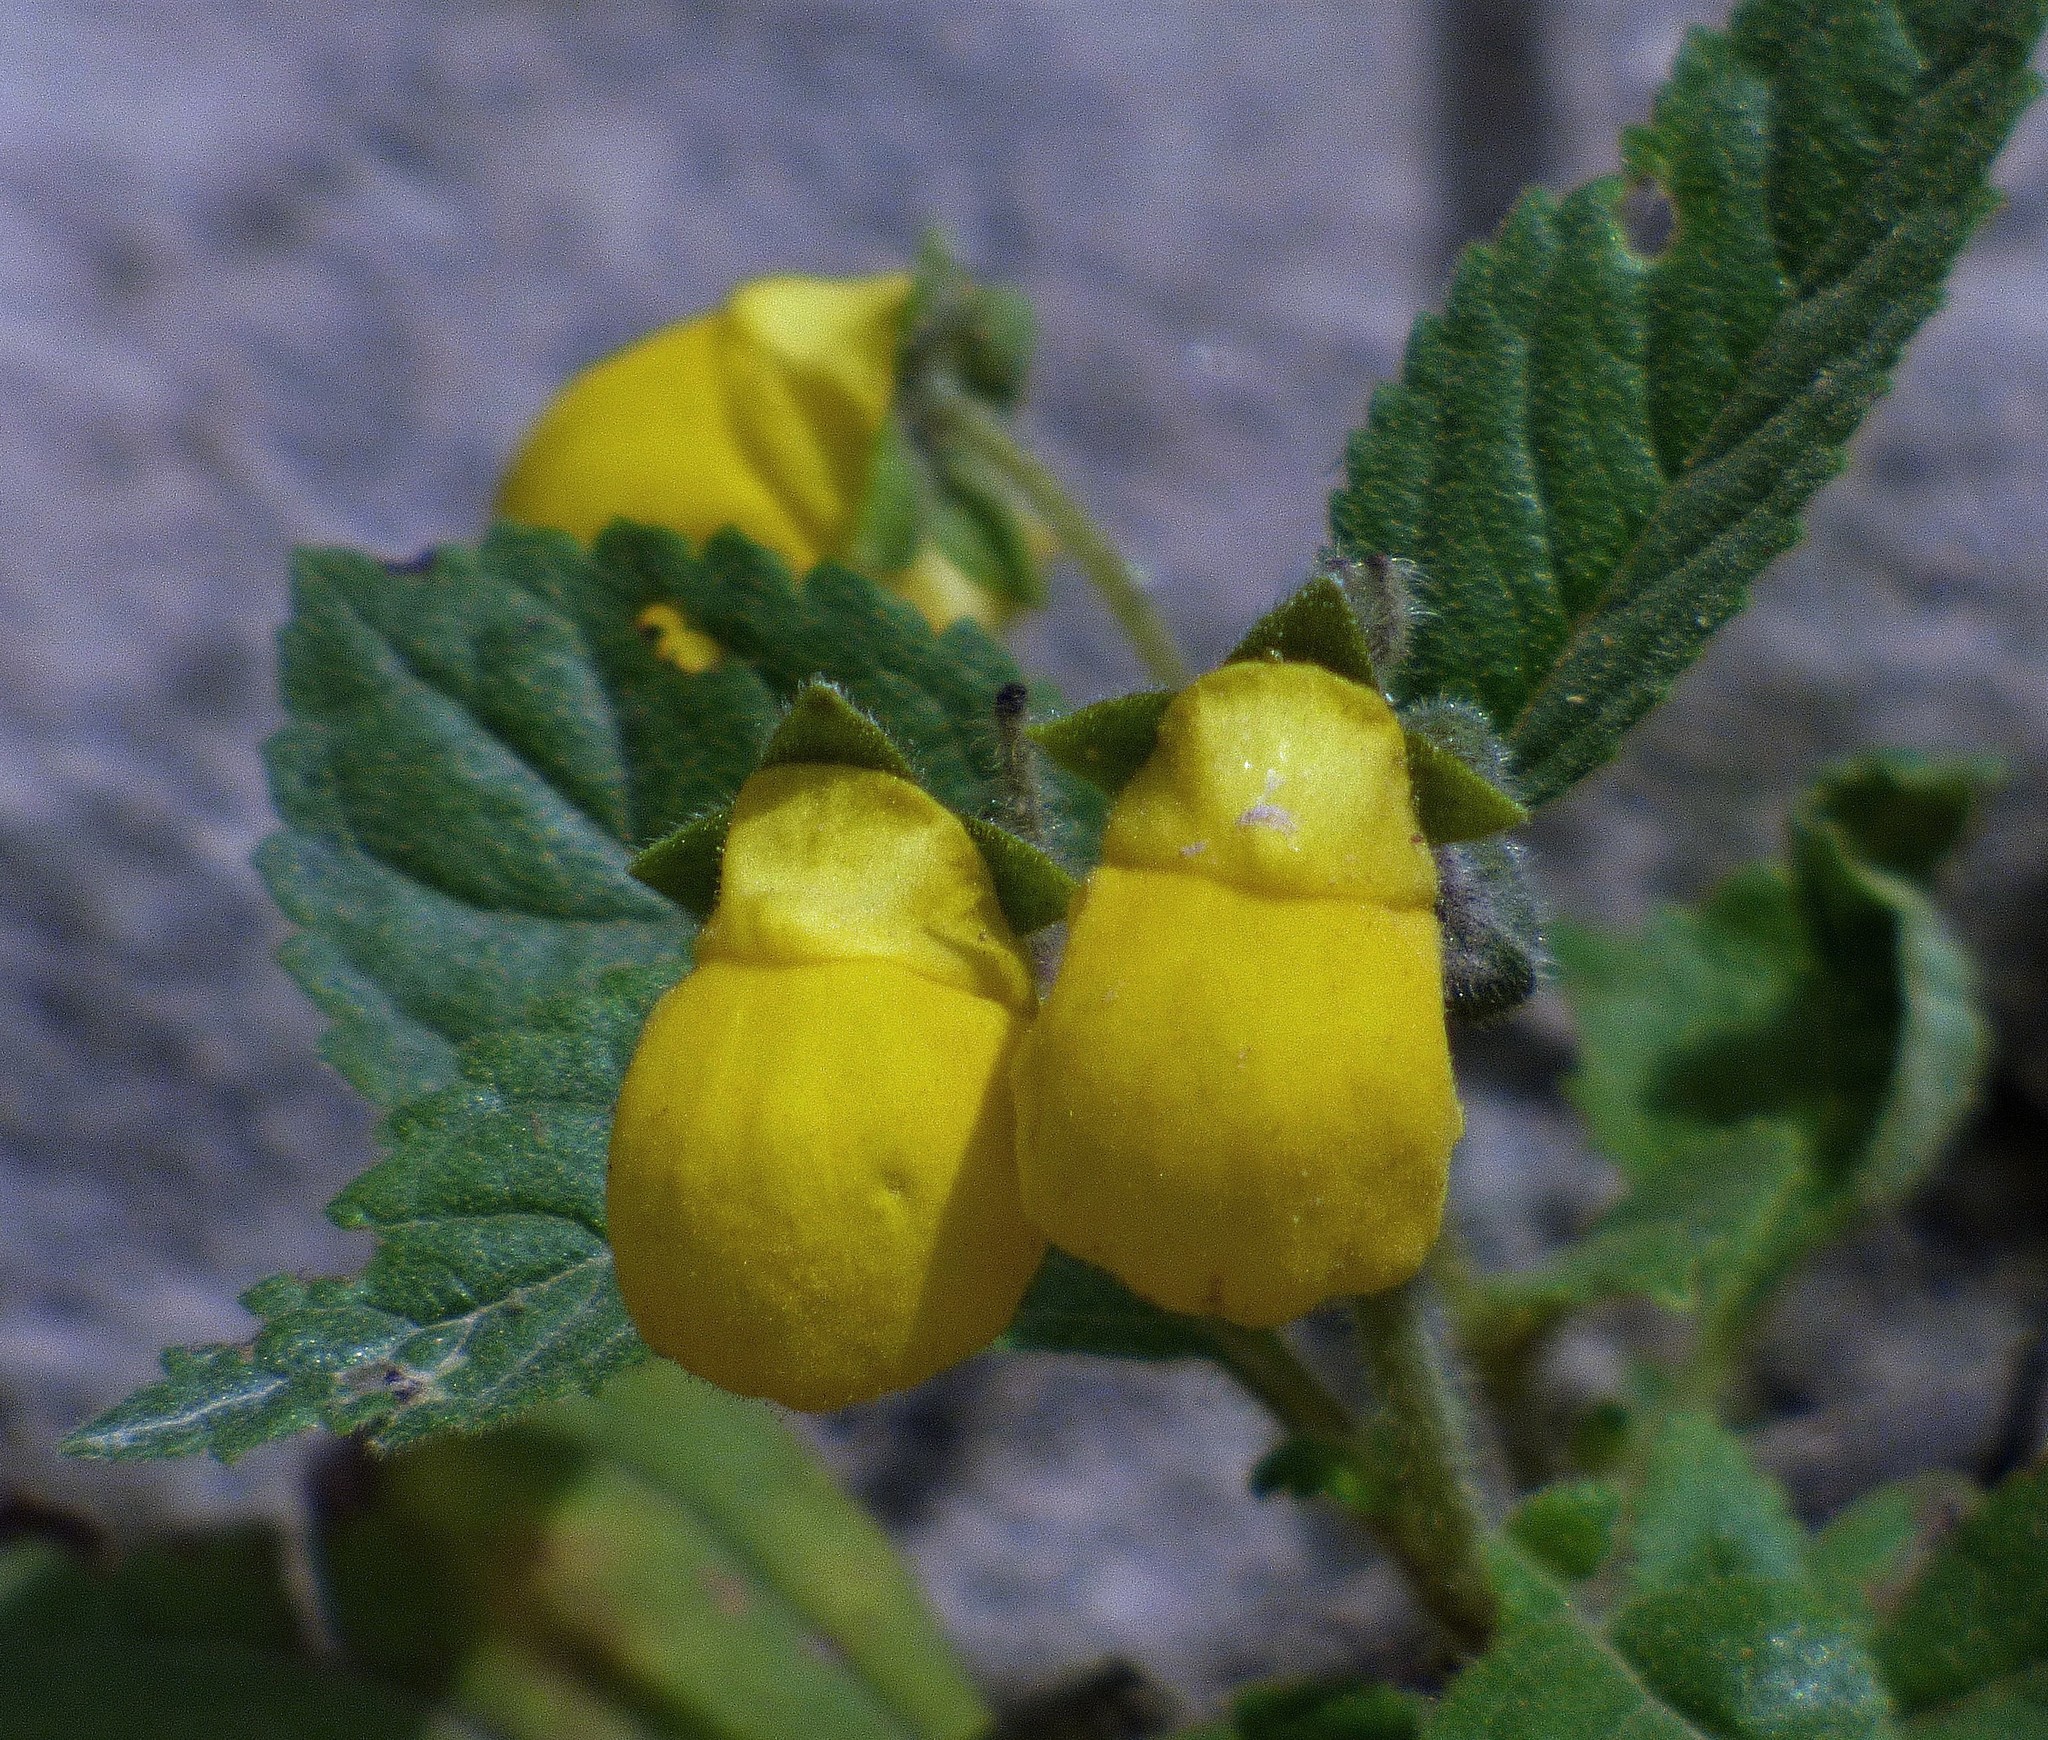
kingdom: Plantae
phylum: Tracheophyta
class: Magnoliopsida
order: Lamiales
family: Calceolariaceae
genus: Calceolaria
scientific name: Calceolaria elatior
